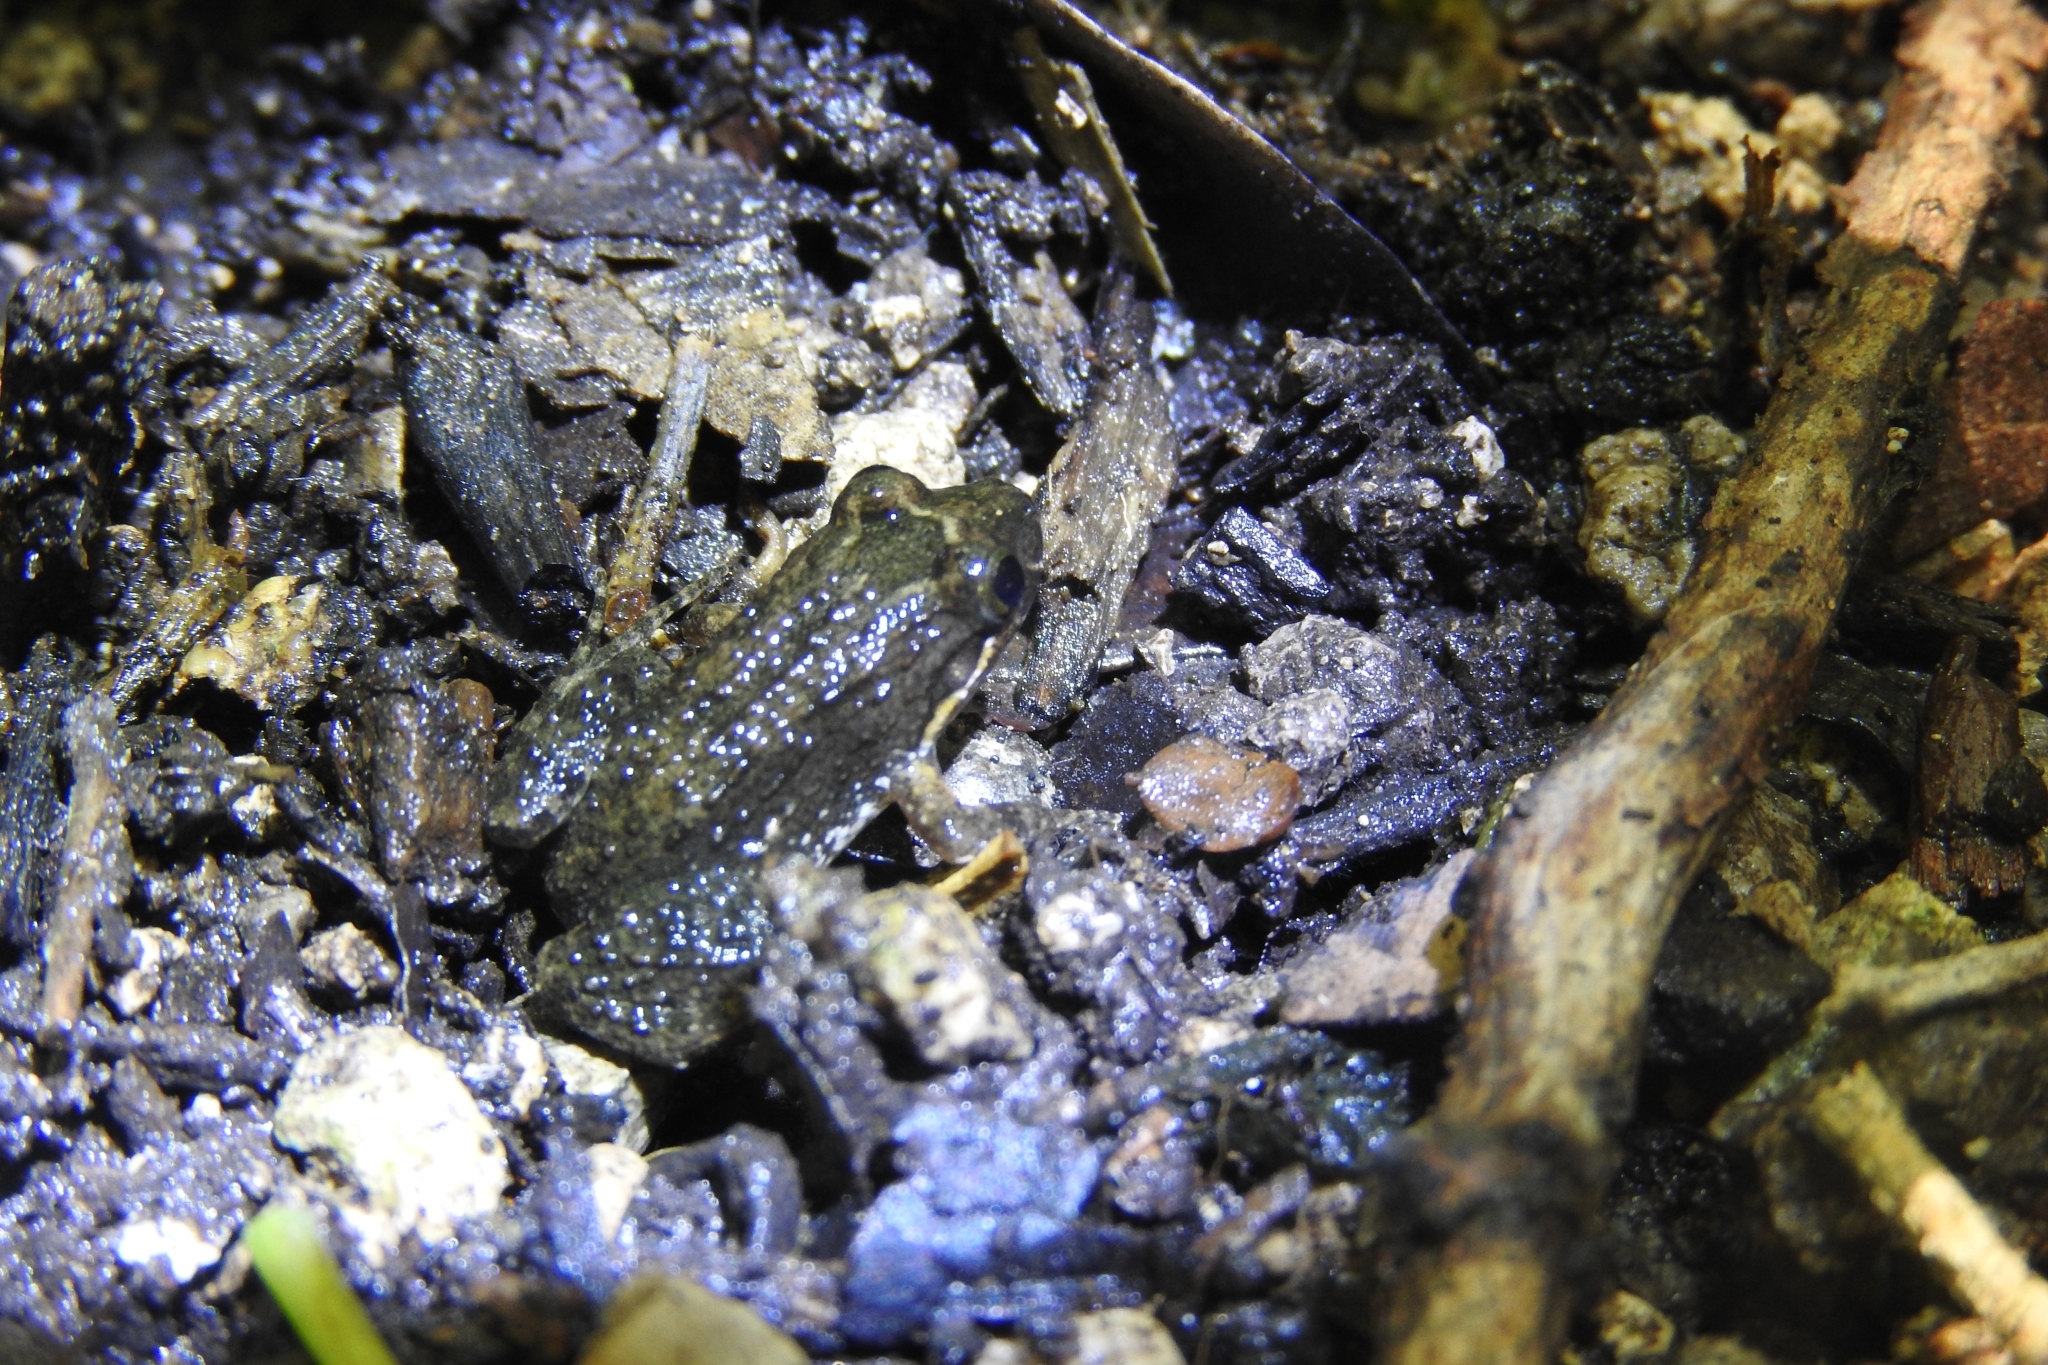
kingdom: Animalia
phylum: Chordata
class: Amphibia
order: Anura
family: Leptodactylidae
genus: Leptodactylus
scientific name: Leptodactylus melanonotus
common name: Fringe-toed foamfrog
